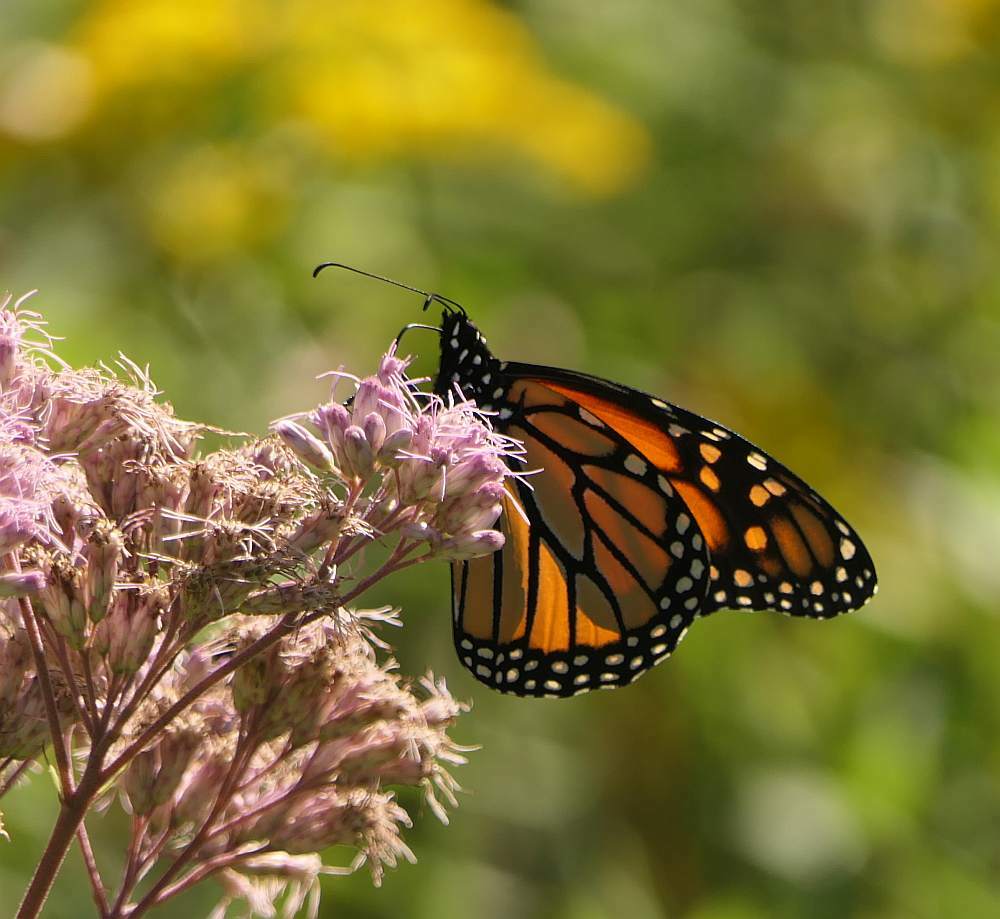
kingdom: Animalia
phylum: Arthropoda
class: Insecta
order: Lepidoptera
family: Nymphalidae
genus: Danaus
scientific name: Danaus plexippus
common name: Monarch
